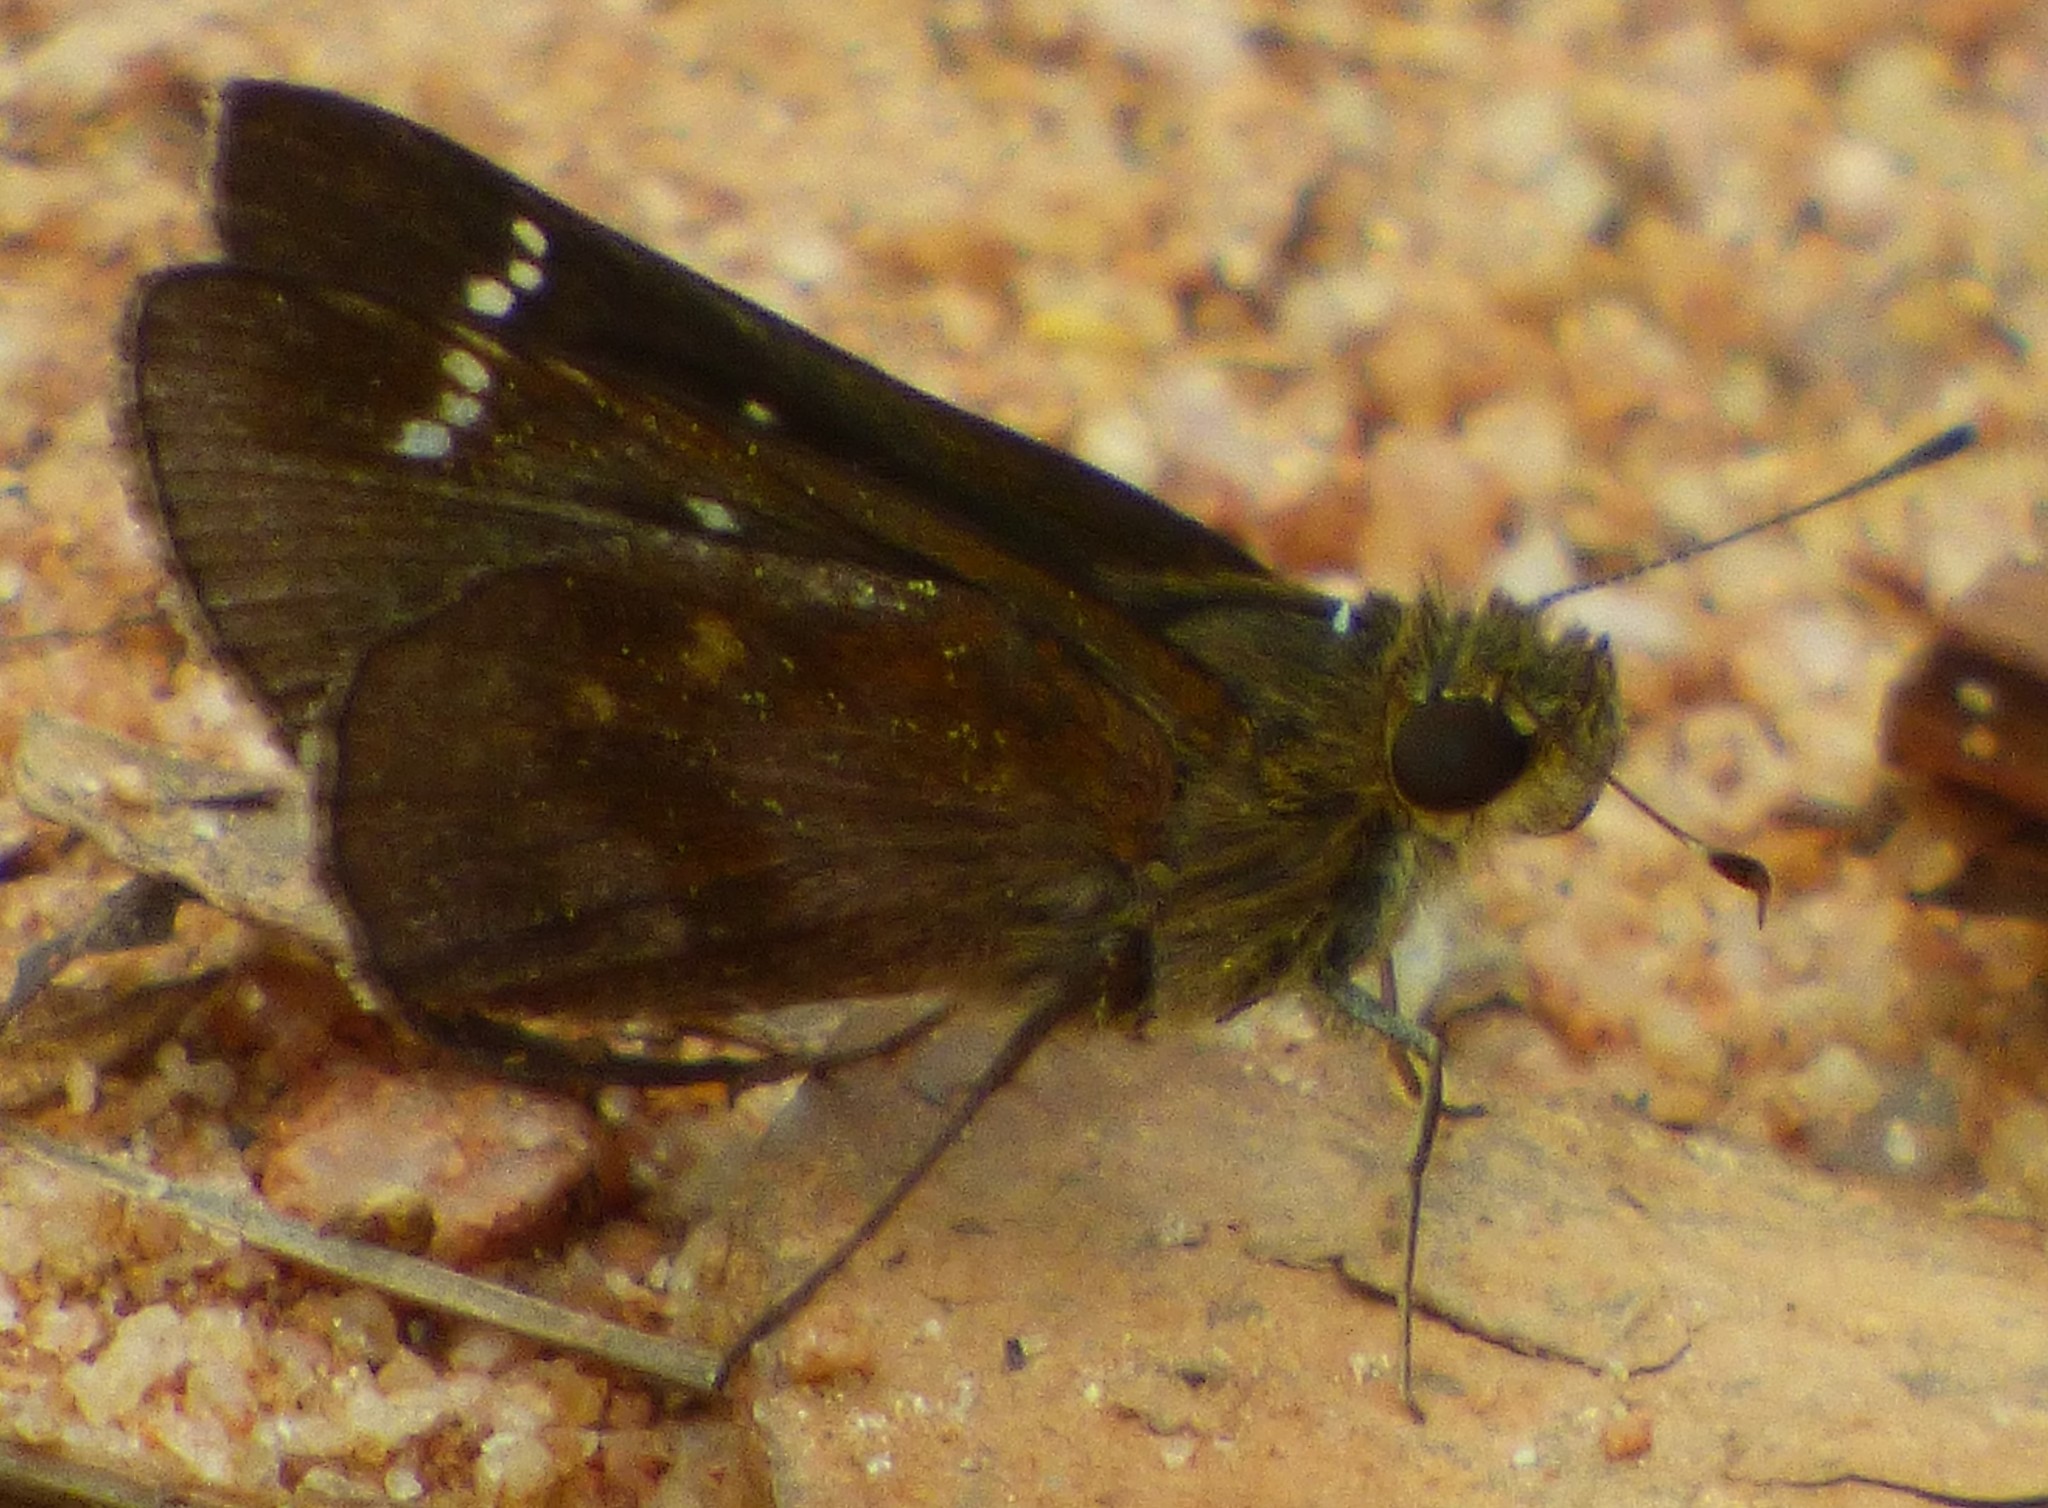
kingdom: Animalia
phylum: Arthropoda
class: Insecta
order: Lepidoptera
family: Hesperiidae
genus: Lerema
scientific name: Lerema accius
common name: Clouded skipper
